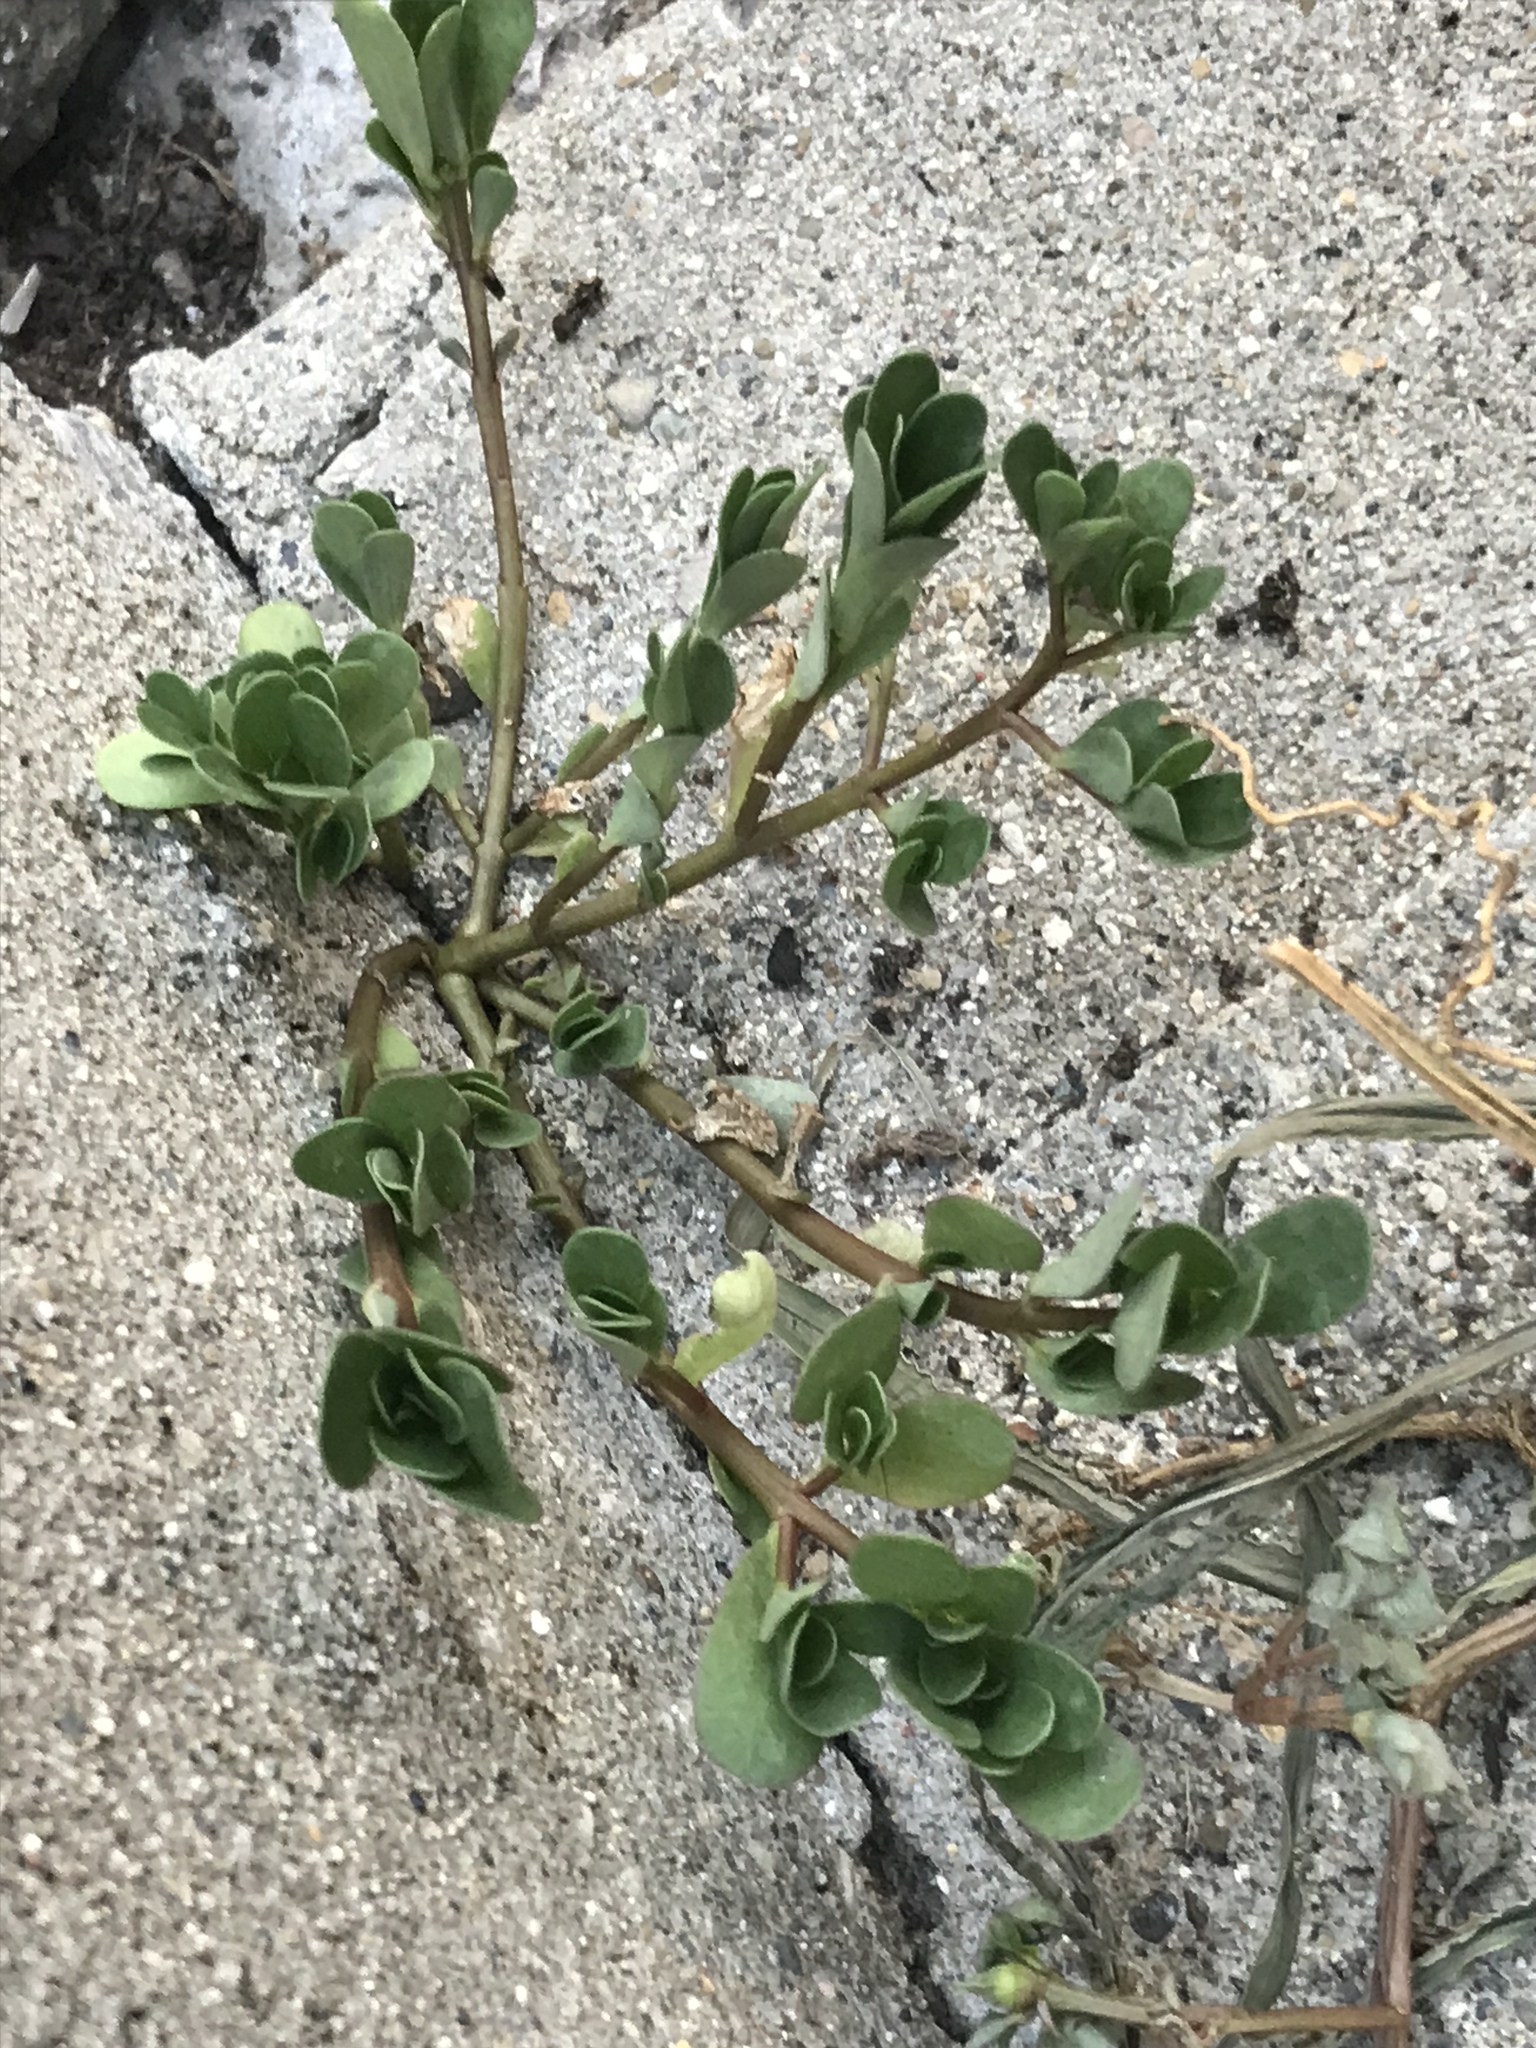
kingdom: Plantae
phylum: Tracheophyta
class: Magnoliopsida
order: Caryophyllales
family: Portulacaceae
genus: Portulaca
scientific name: Portulaca oleracea
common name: Common purslane
